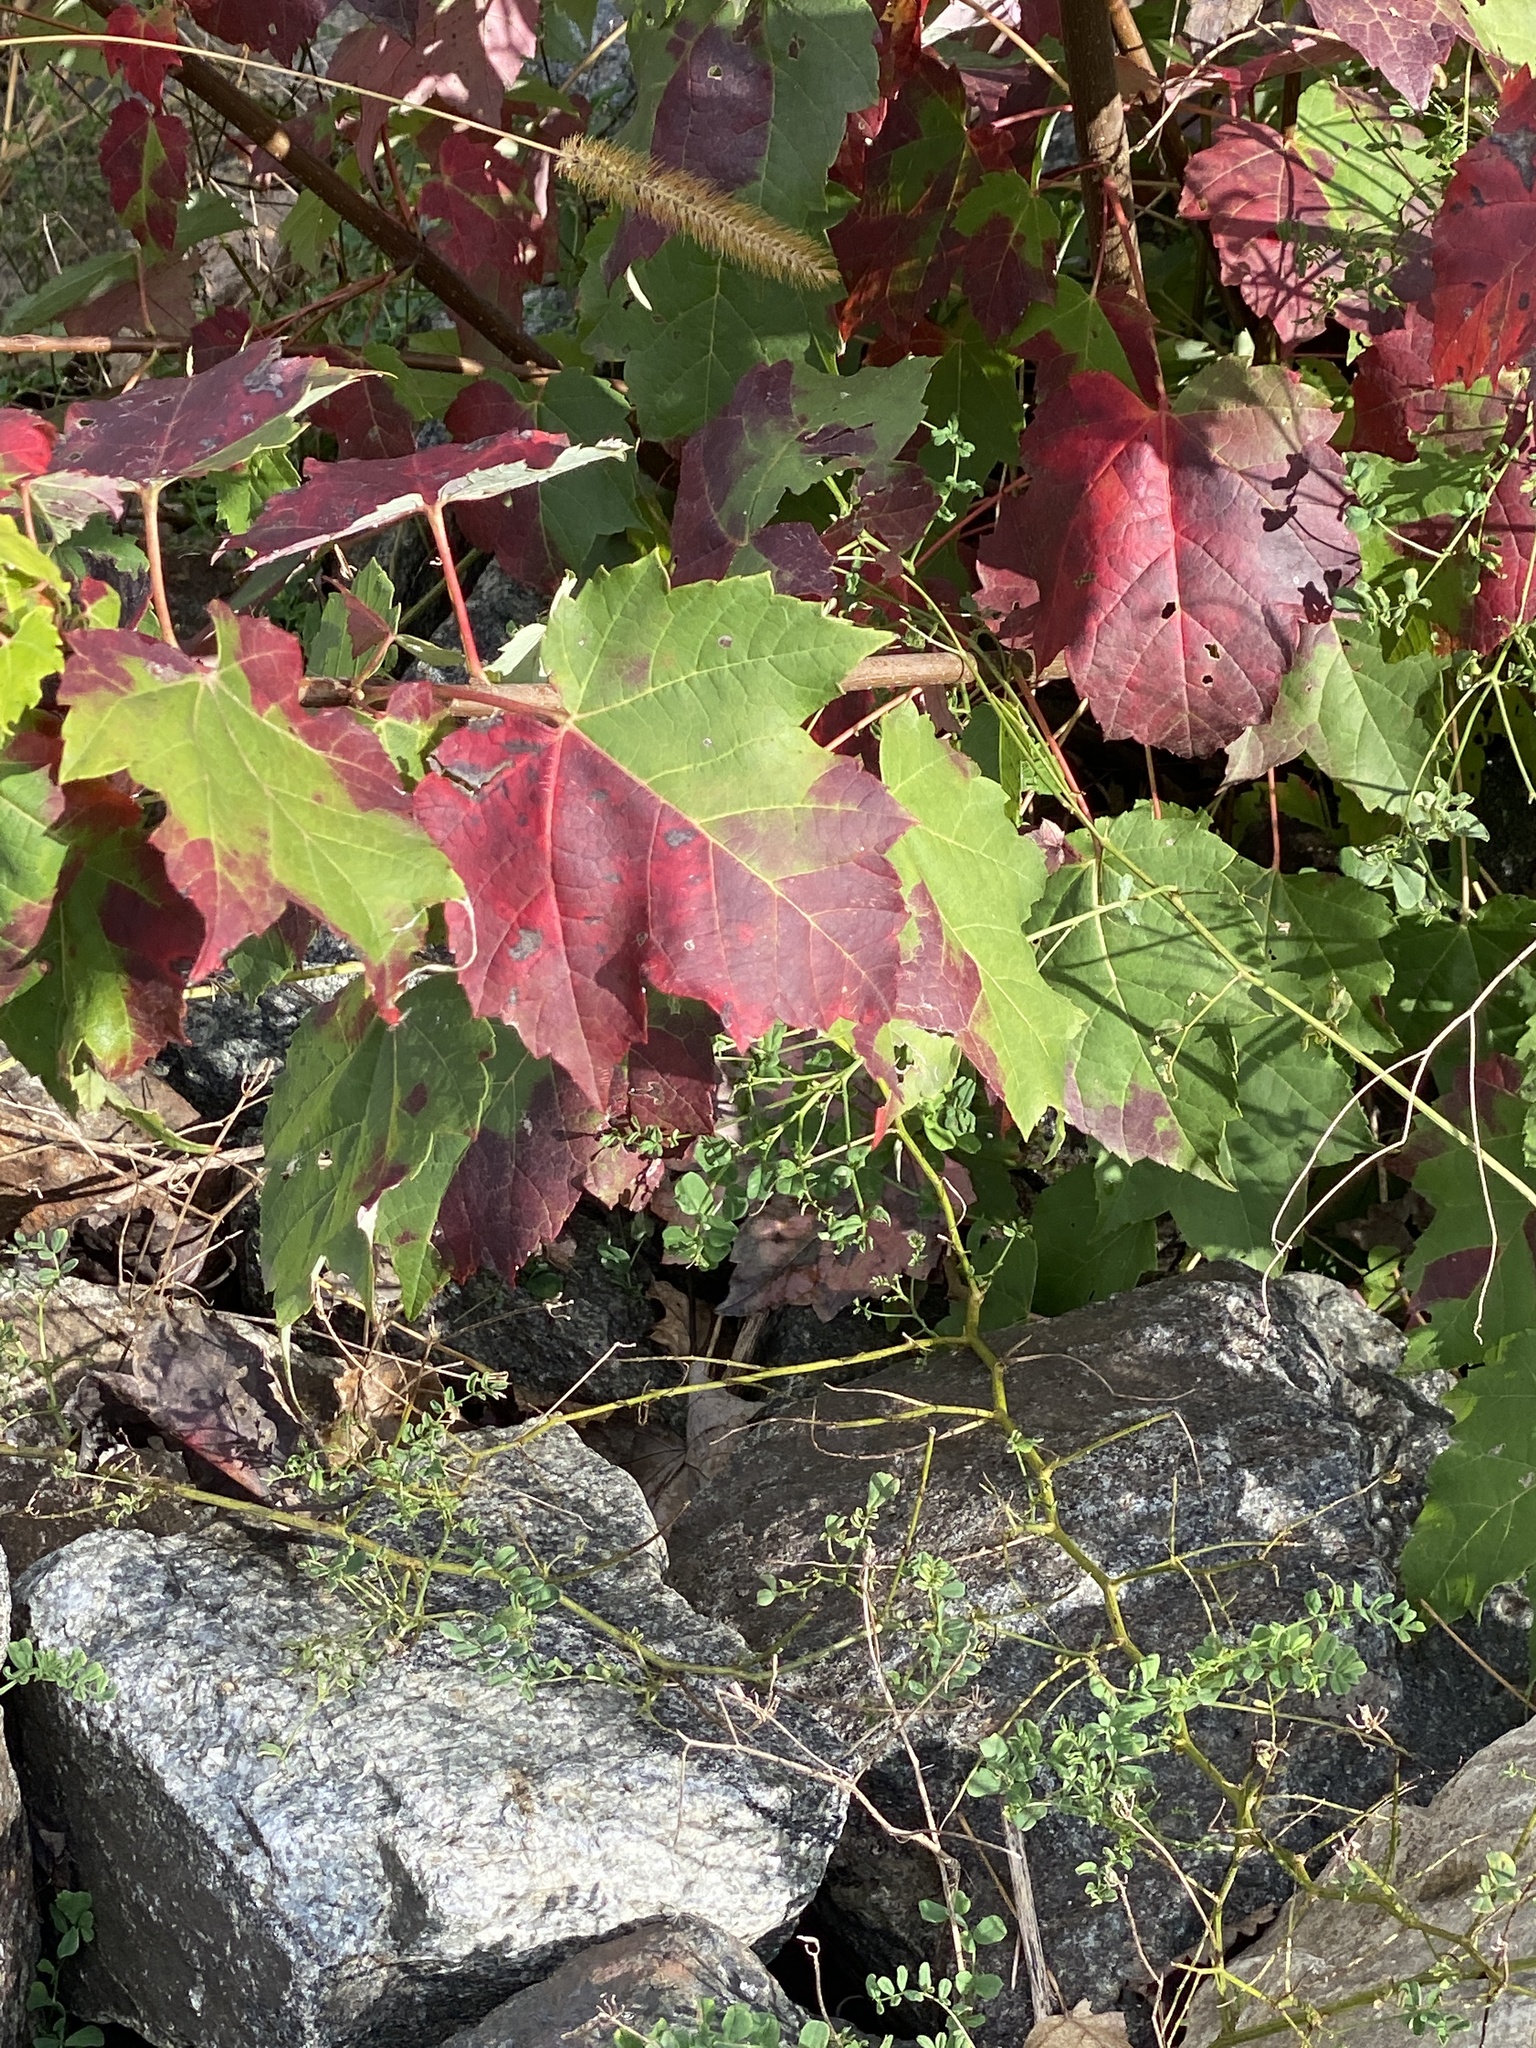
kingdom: Plantae
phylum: Tracheophyta
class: Magnoliopsida
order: Sapindales
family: Sapindaceae
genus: Acer
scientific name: Acer rubrum
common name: Red maple
